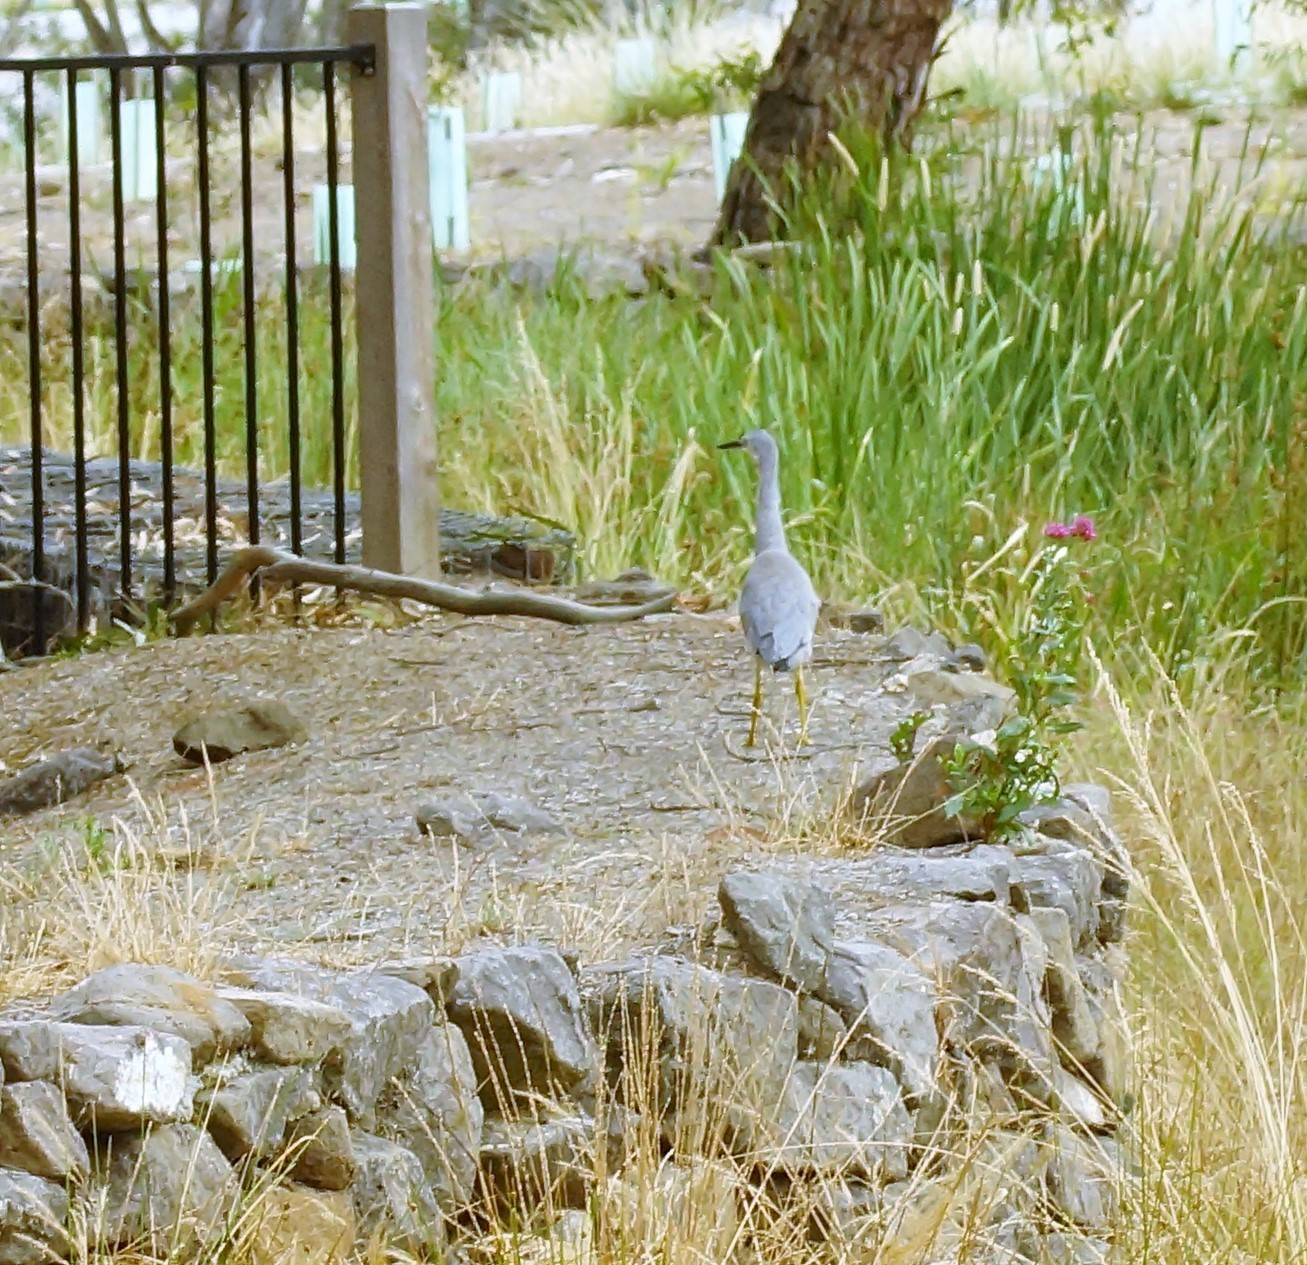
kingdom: Animalia
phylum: Chordata
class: Aves
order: Pelecaniformes
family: Ardeidae
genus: Egretta
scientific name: Egretta novaehollandiae
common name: White-faced heron
